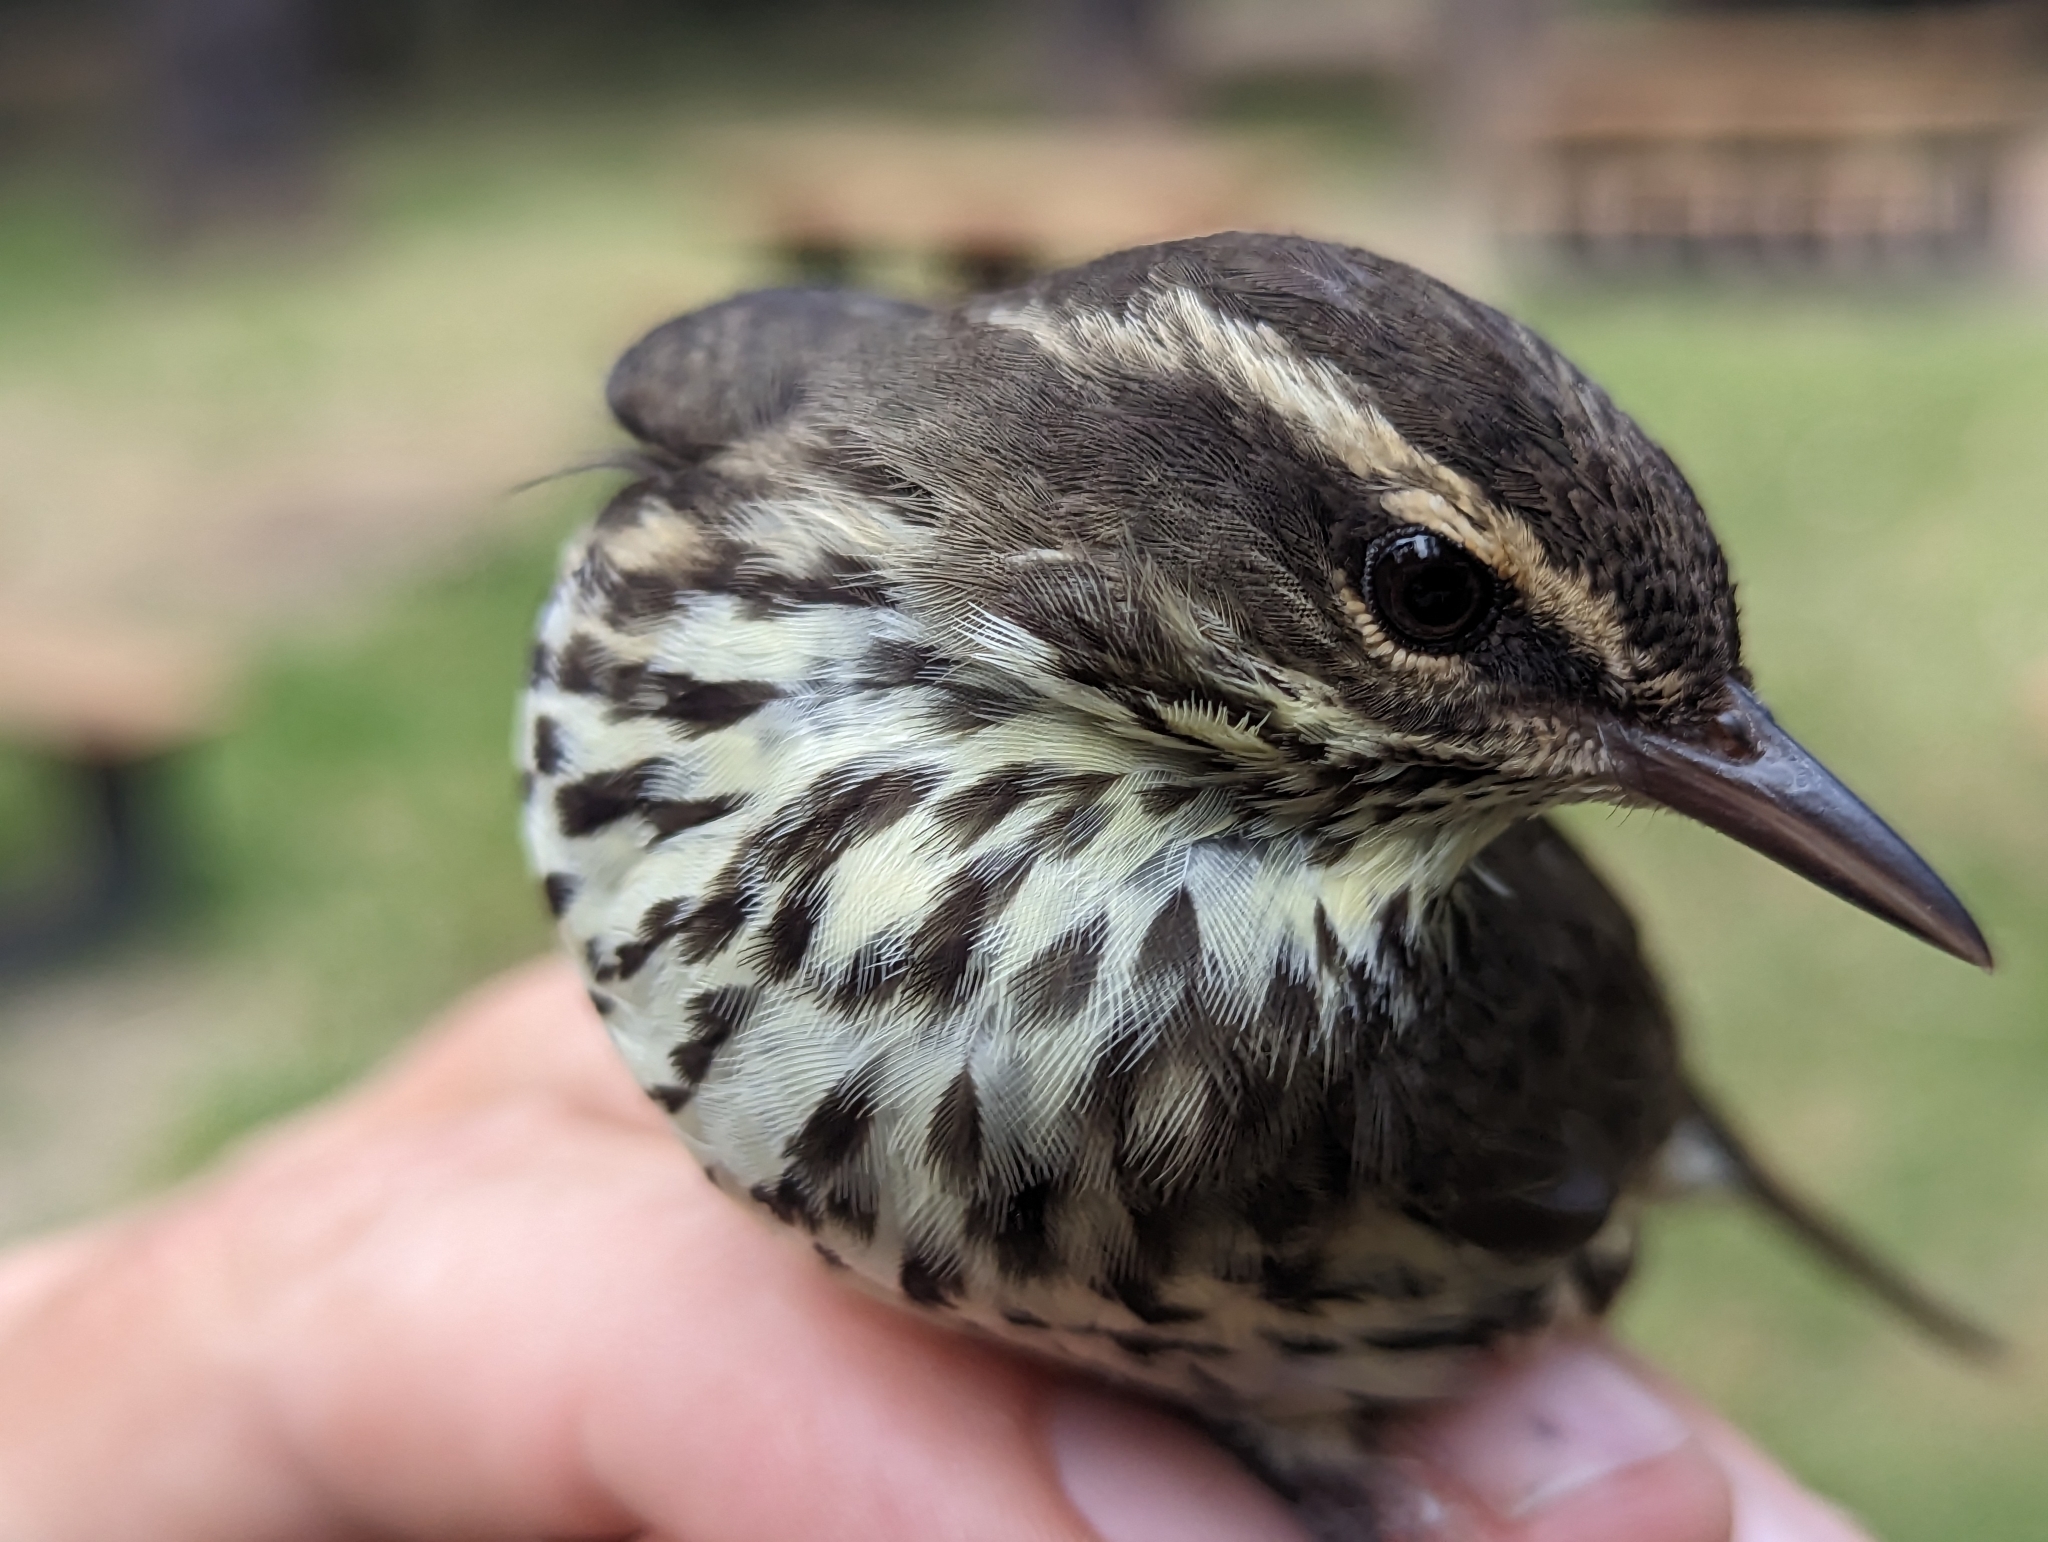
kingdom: Animalia
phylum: Chordata
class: Aves
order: Passeriformes
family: Parulidae
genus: Parkesia
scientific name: Parkesia noveboracensis
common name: Northern waterthrush
